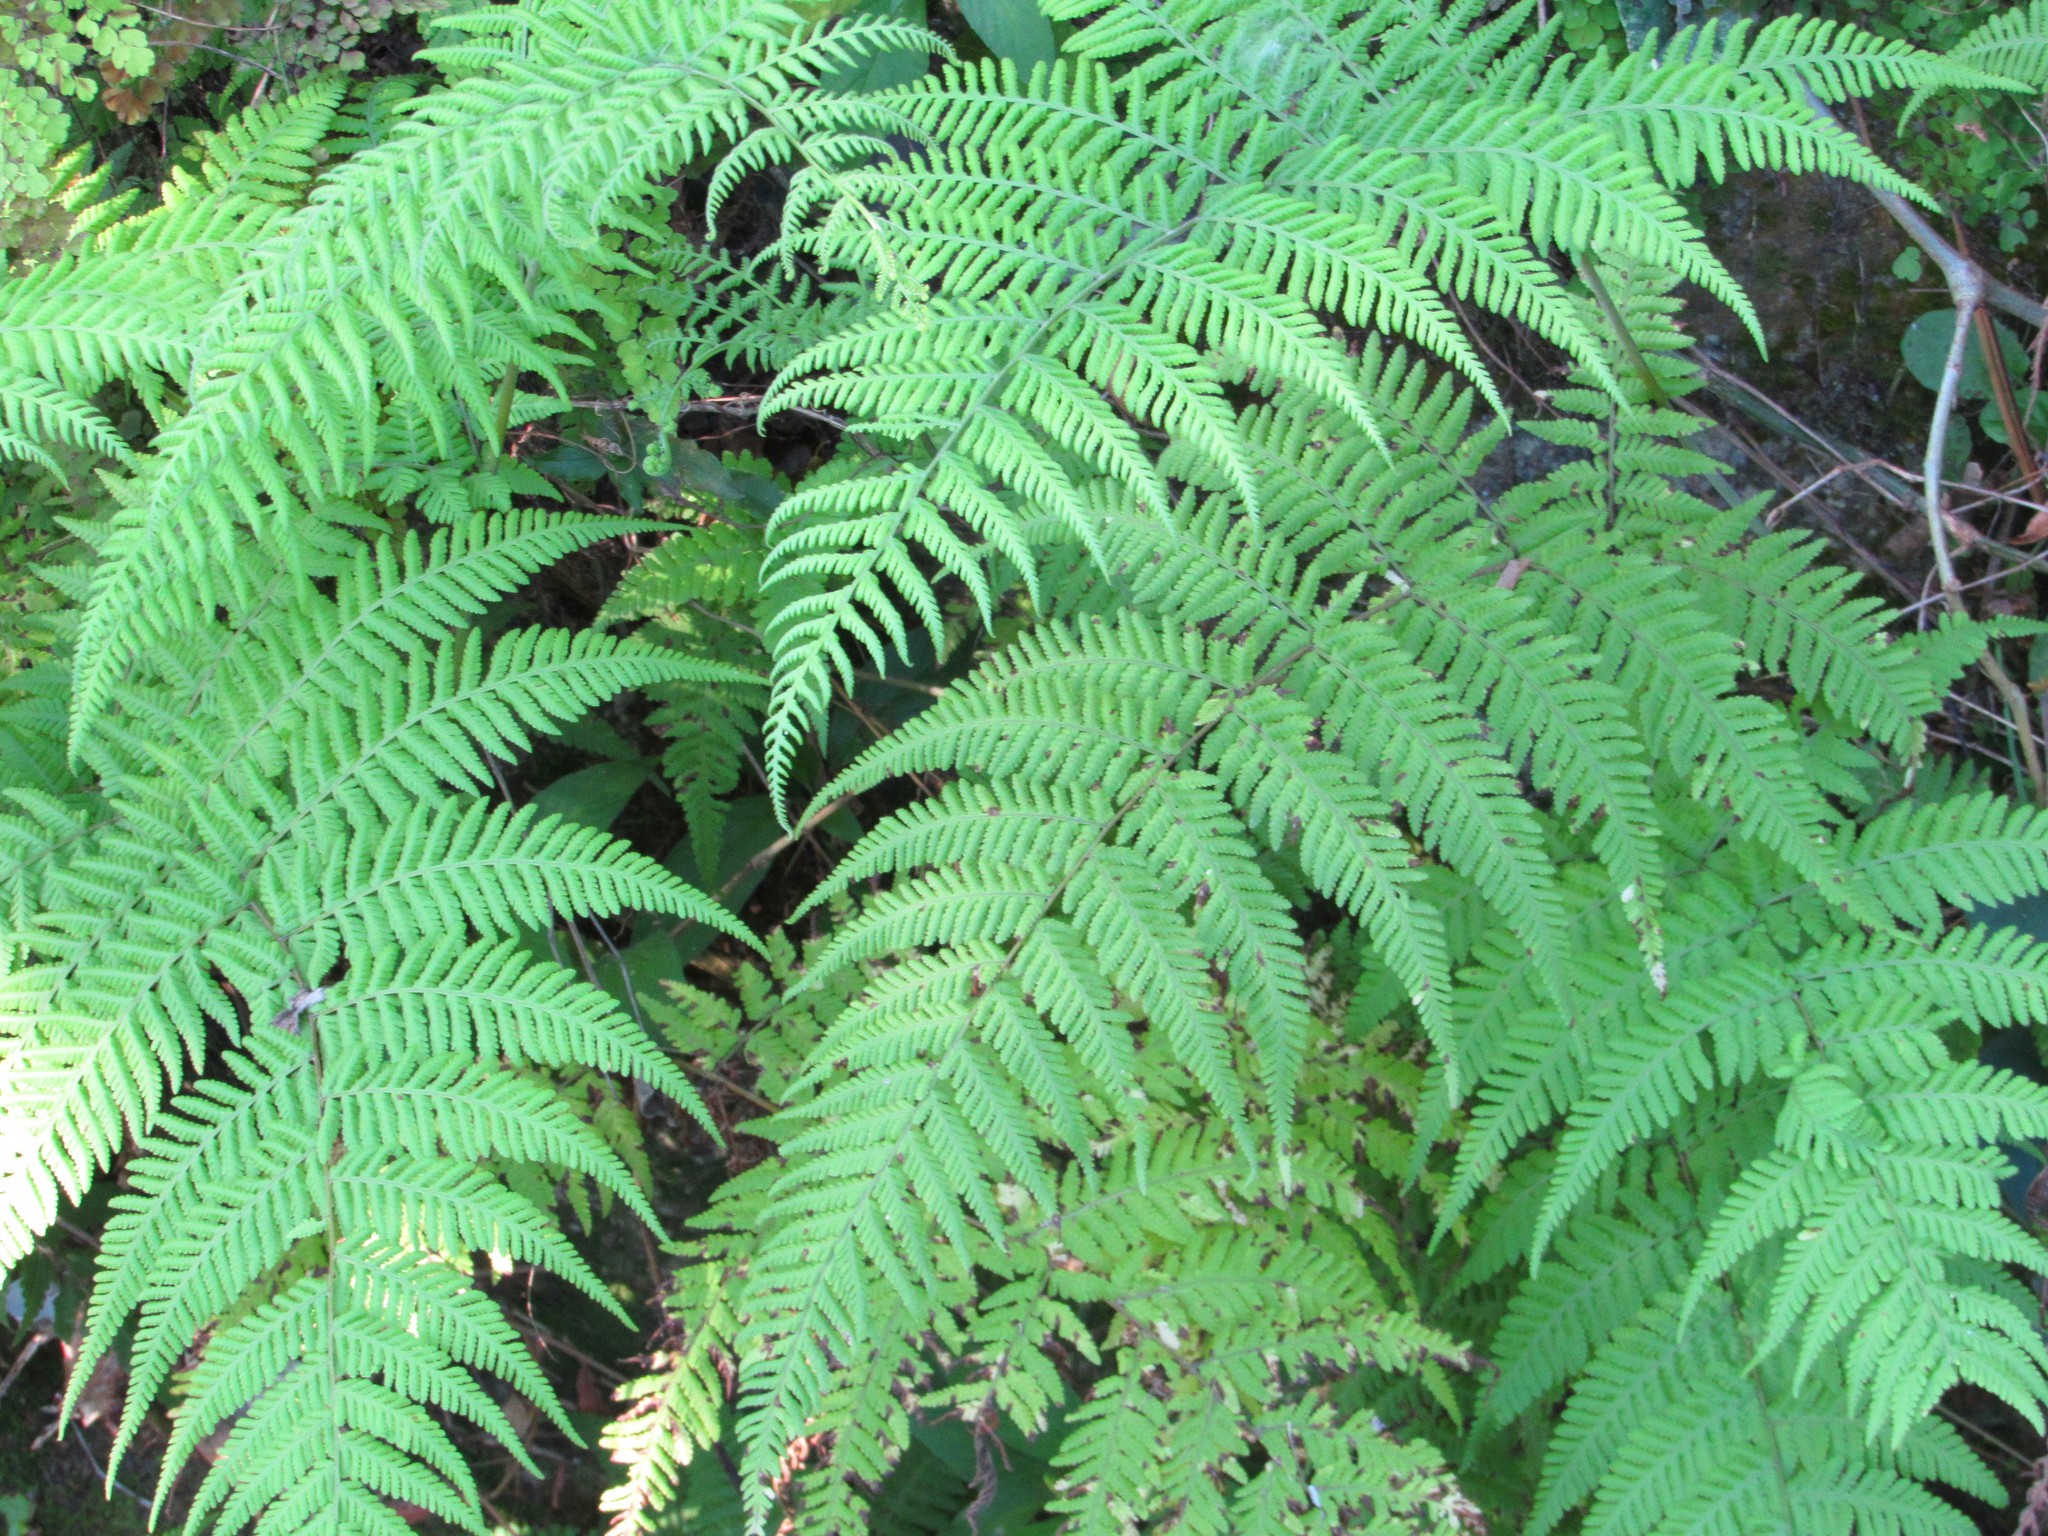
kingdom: Plantae
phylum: Tracheophyta
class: Polypodiopsida
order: Polypodiales
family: Thelypteridaceae
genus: Macrothelypteris
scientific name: Macrothelypteris torresiana
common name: Swordfern
